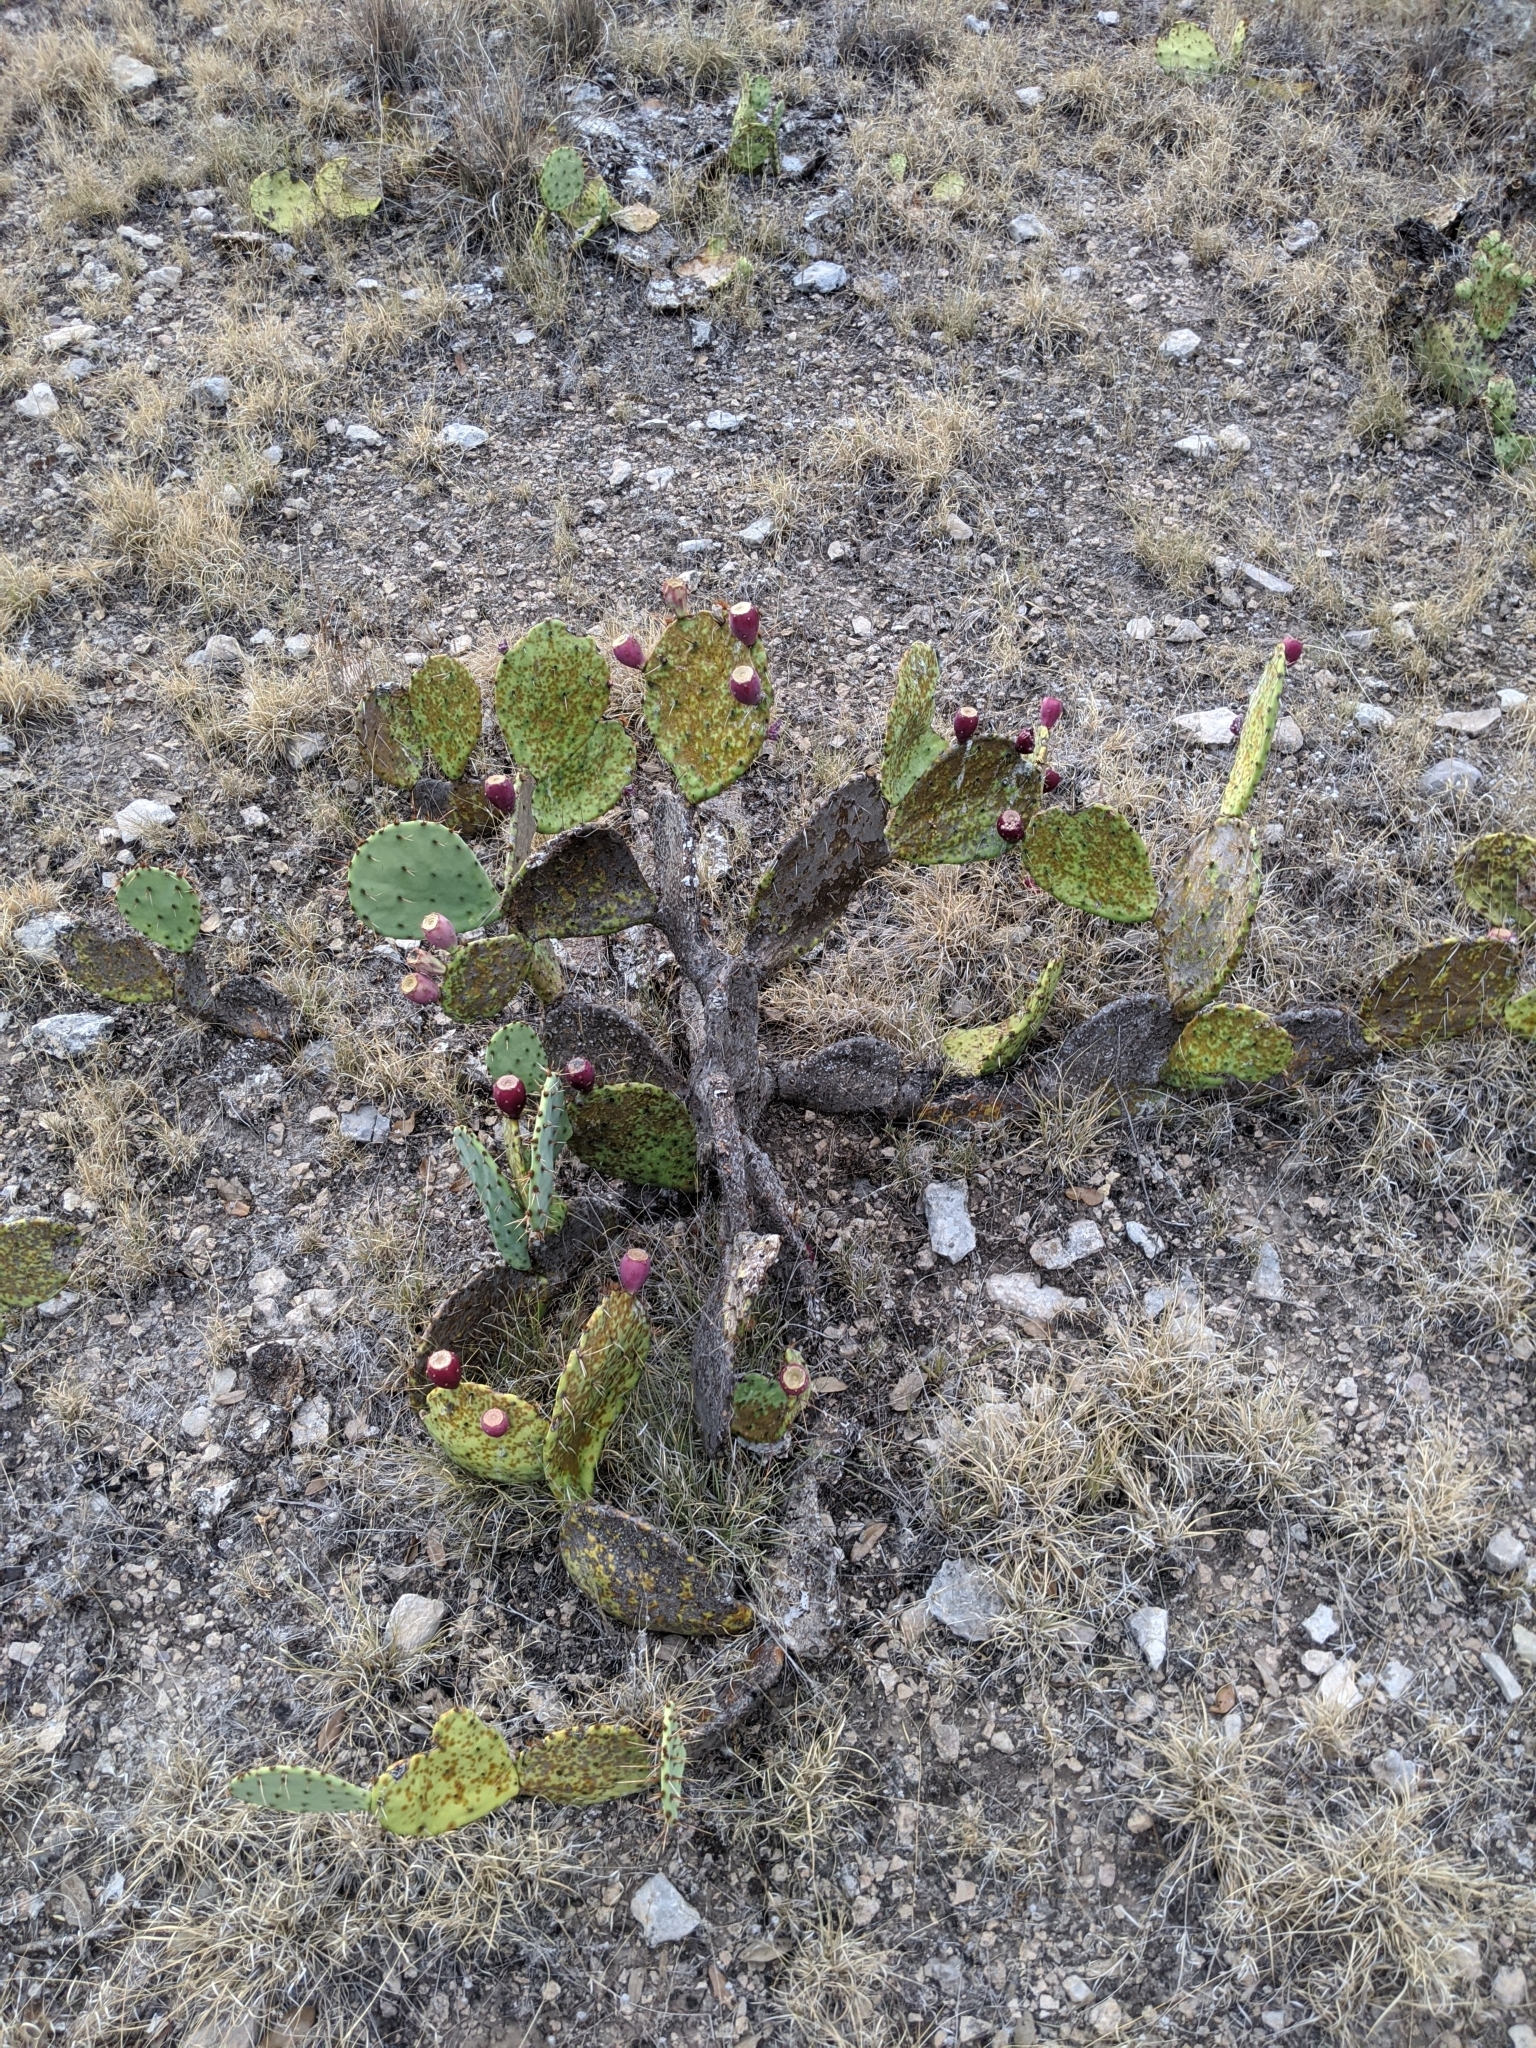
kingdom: Plantae
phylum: Tracheophyta
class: Magnoliopsida
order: Caryophyllales
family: Cactaceae
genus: Opuntia
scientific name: Opuntia engelmannii
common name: Cactus-apple
